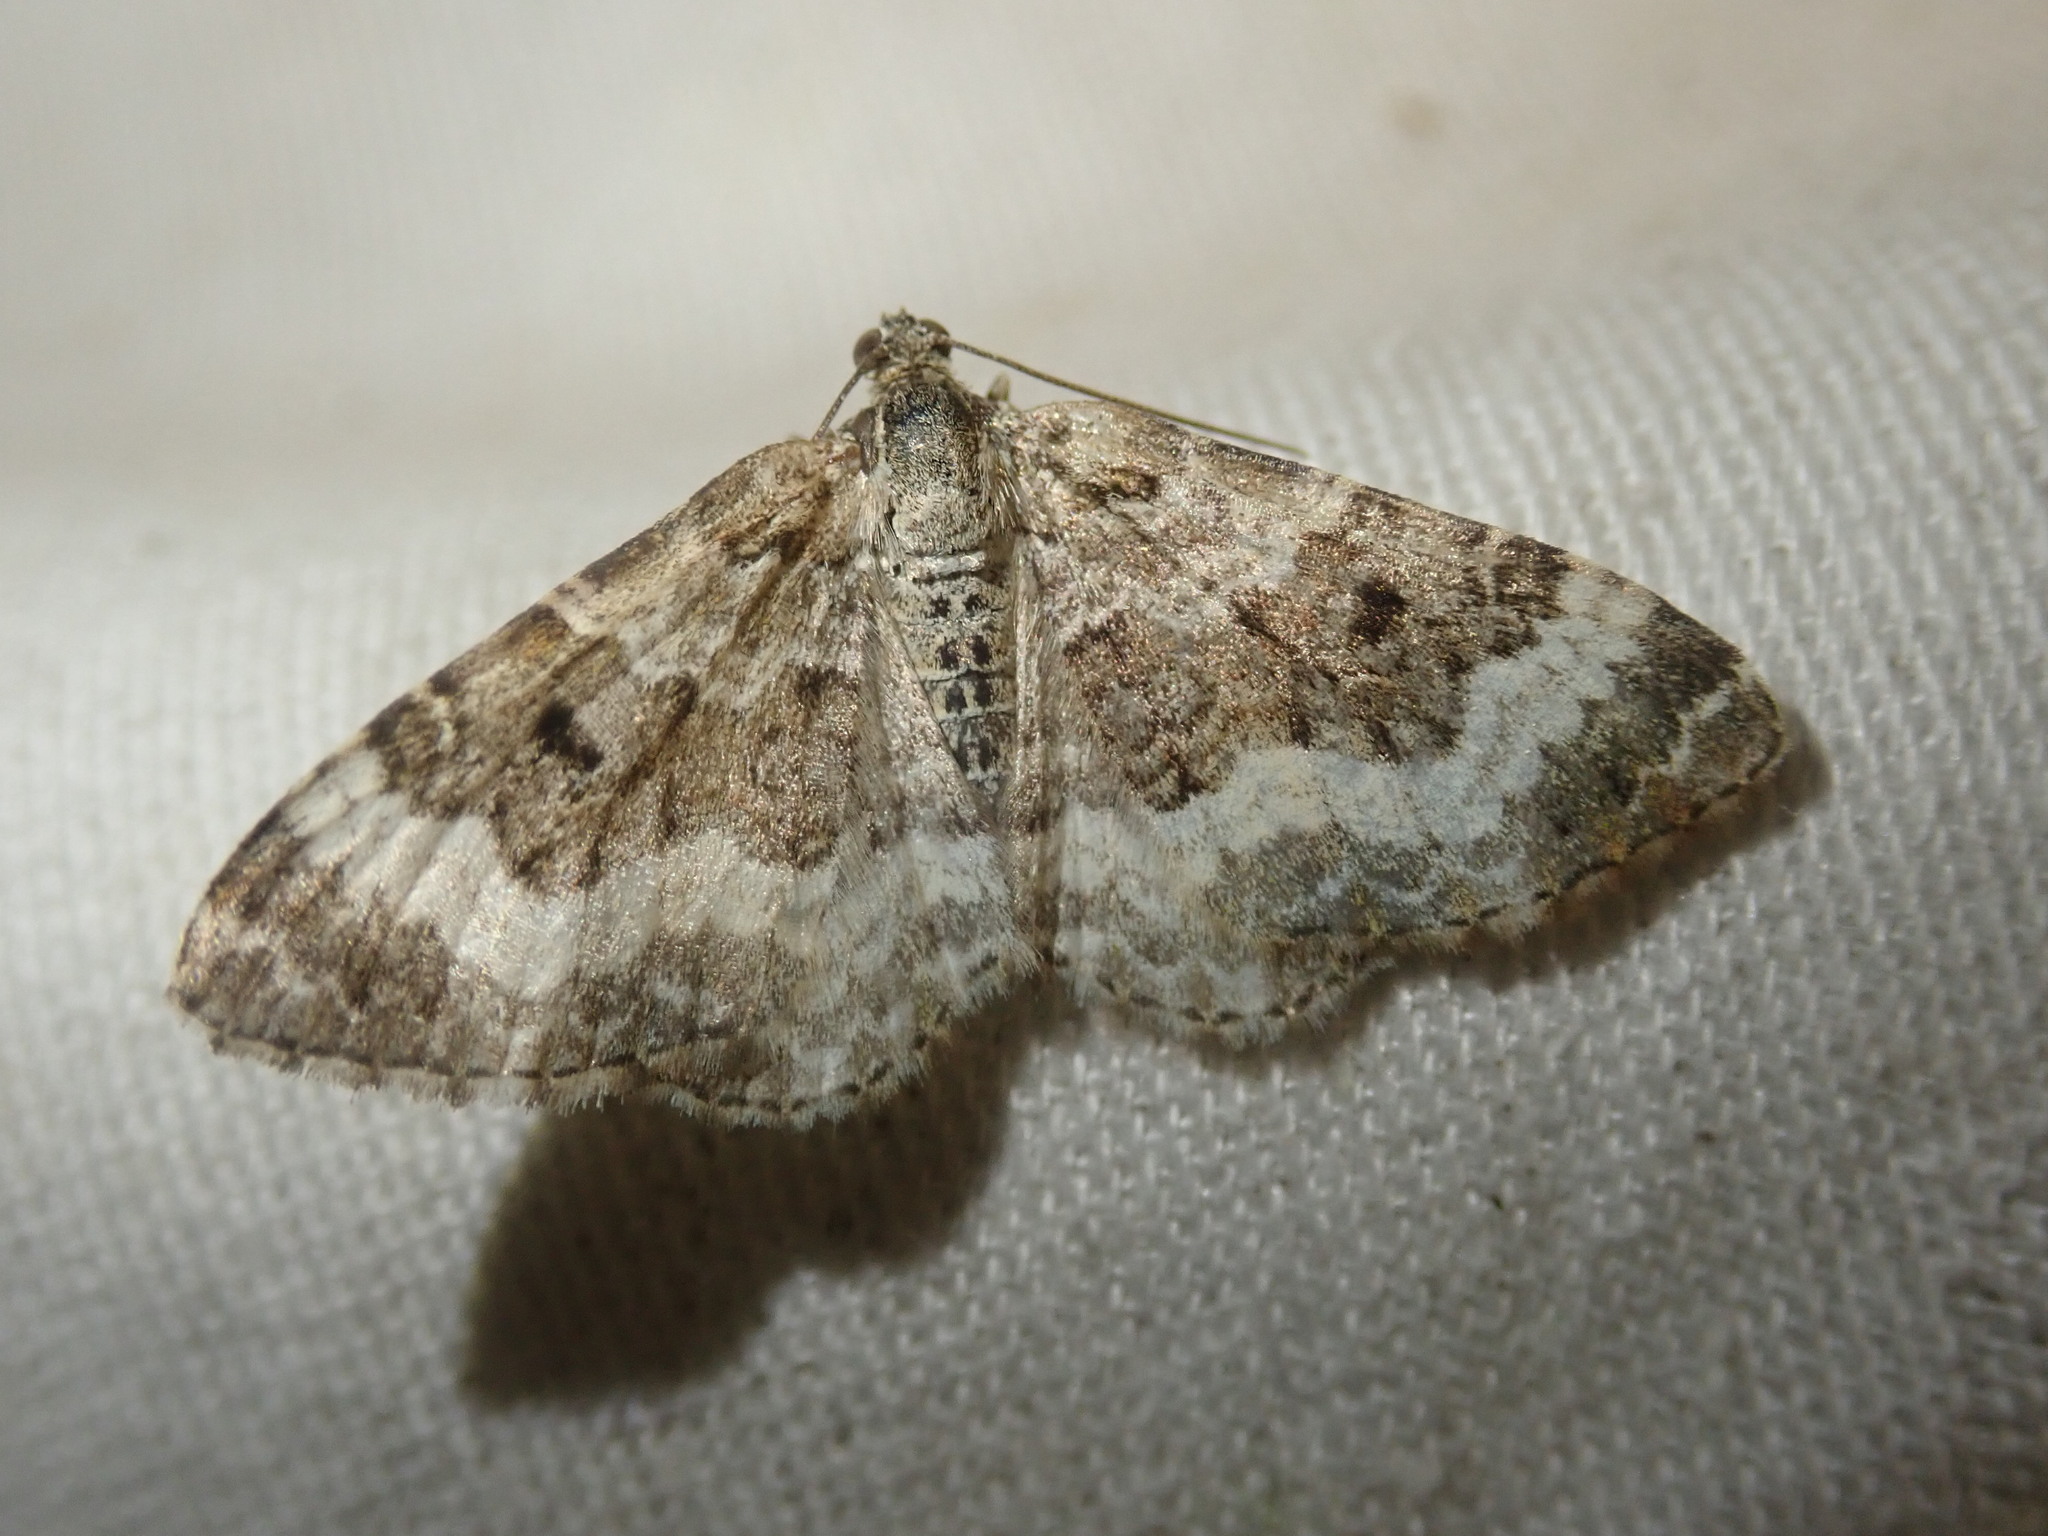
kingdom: Animalia
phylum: Arthropoda
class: Insecta
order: Lepidoptera
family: Geometridae
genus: Epirrhoe
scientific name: Epirrhoe alternata
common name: Common carpet
